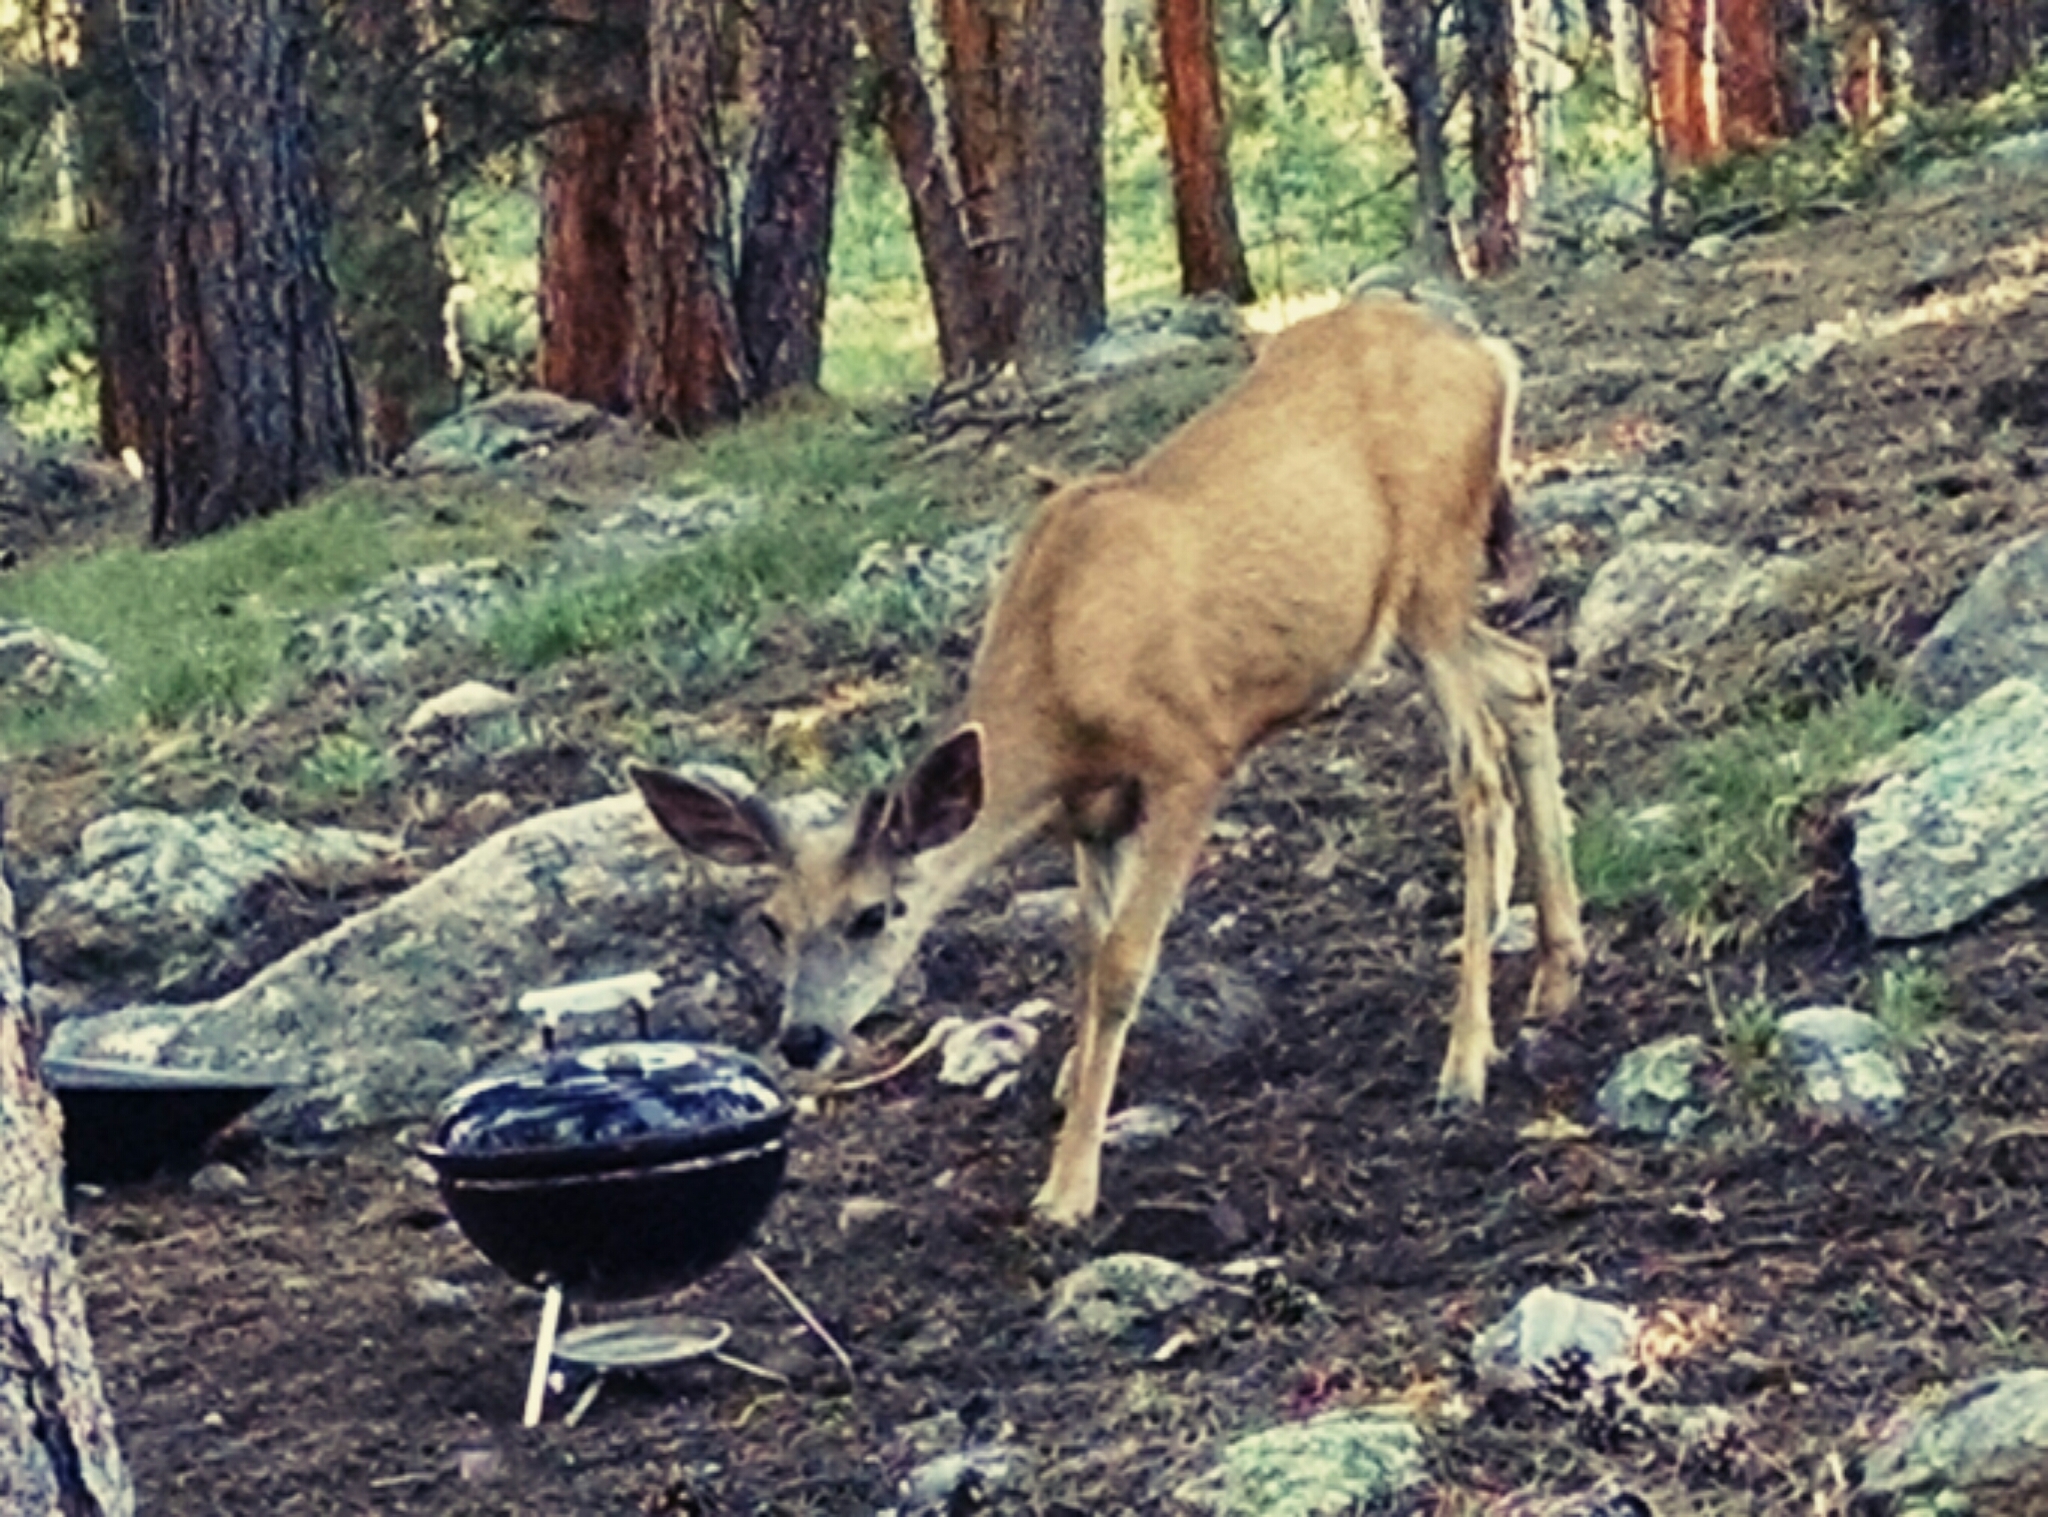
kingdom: Animalia
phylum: Chordata
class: Mammalia
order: Artiodactyla
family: Cervidae
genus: Odocoileus
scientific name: Odocoileus hemionus
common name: Mule deer
